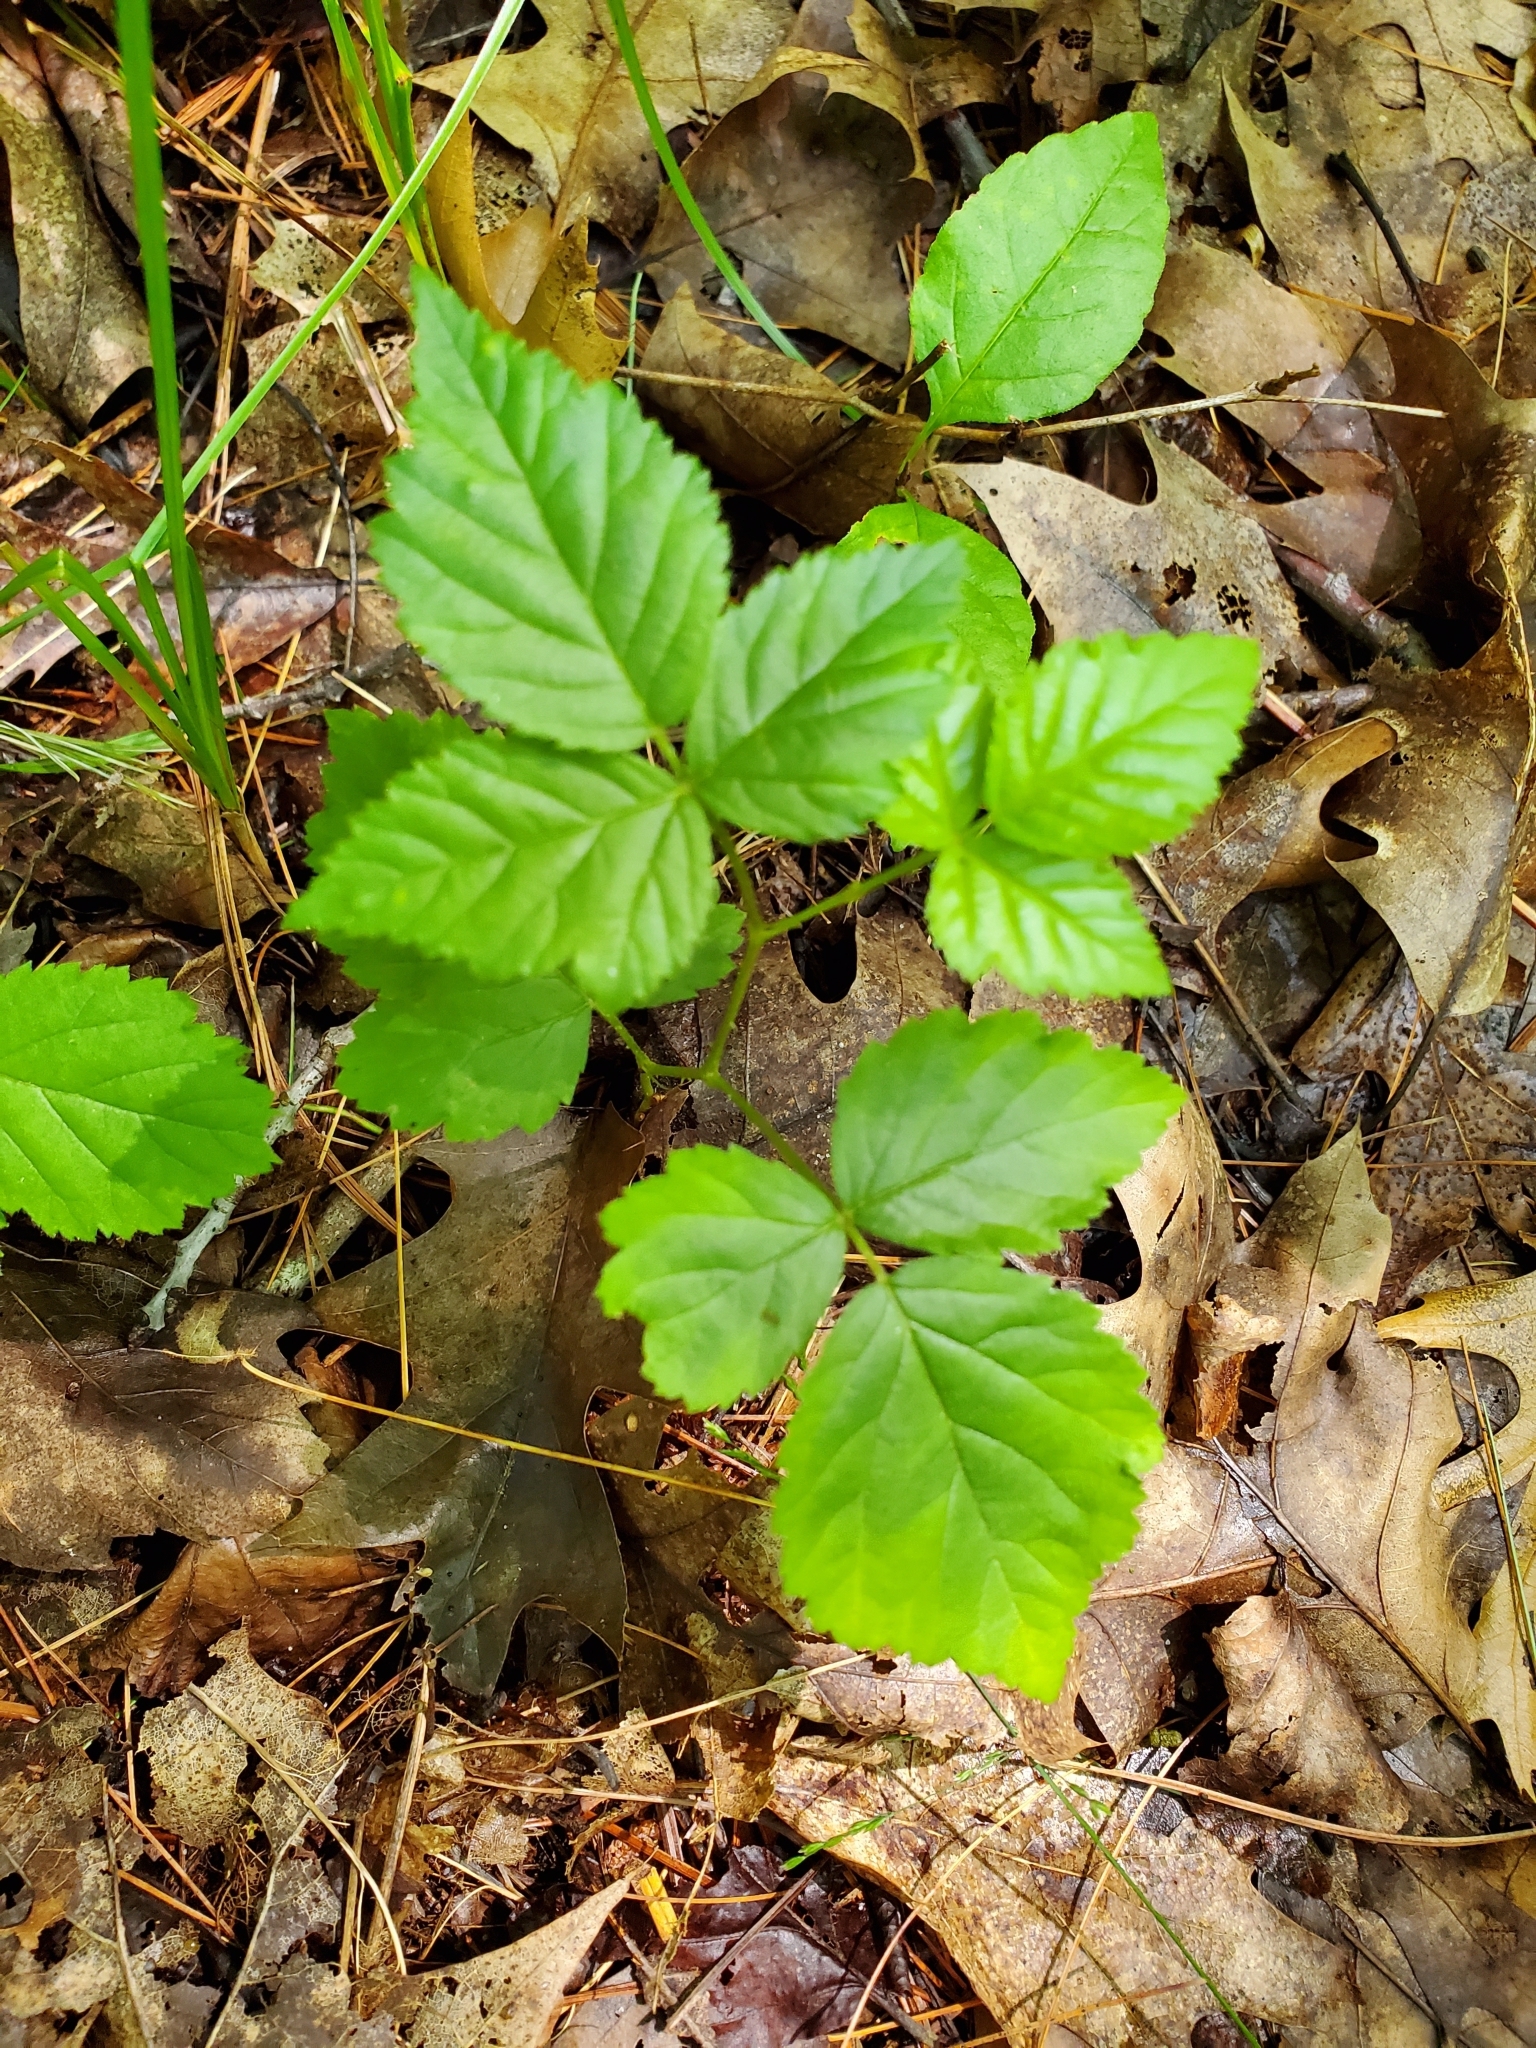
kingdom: Plantae
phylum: Tracheophyta
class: Magnoliopsida
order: Rosales
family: Rosaceae
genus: Rubus
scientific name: Rubus pubescens
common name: Dwarf raspberry
